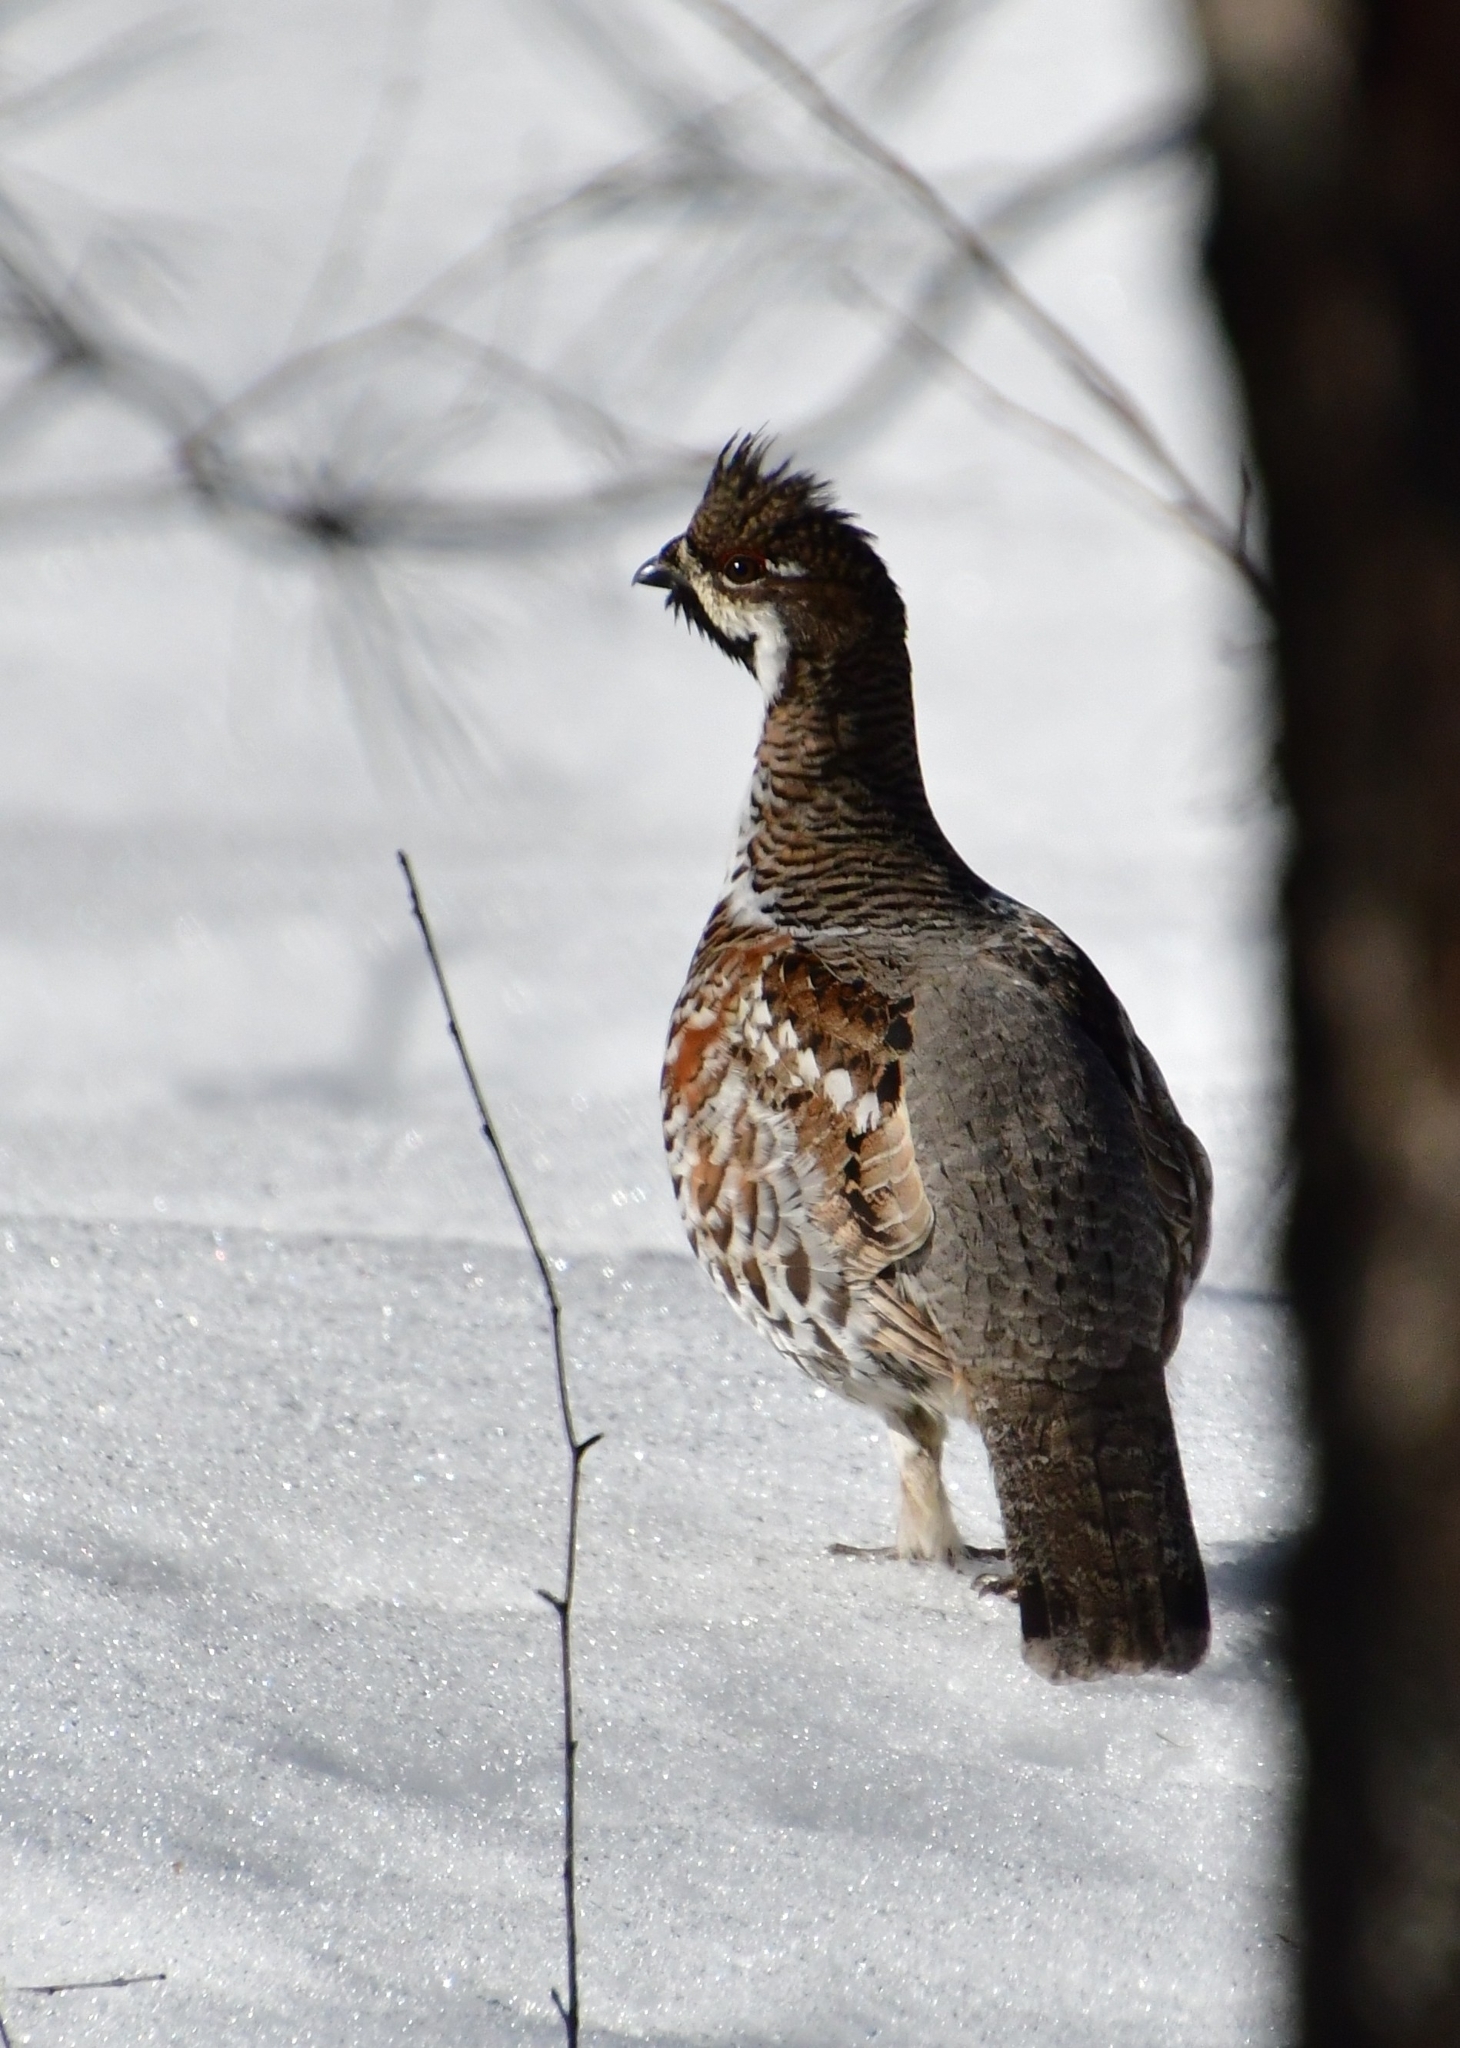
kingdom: Animalia
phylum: Chordata
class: Aves
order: Galliformes
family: Phasianidae
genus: Tetrastes
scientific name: Tetrastes bonasia
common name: Hazel grouse
